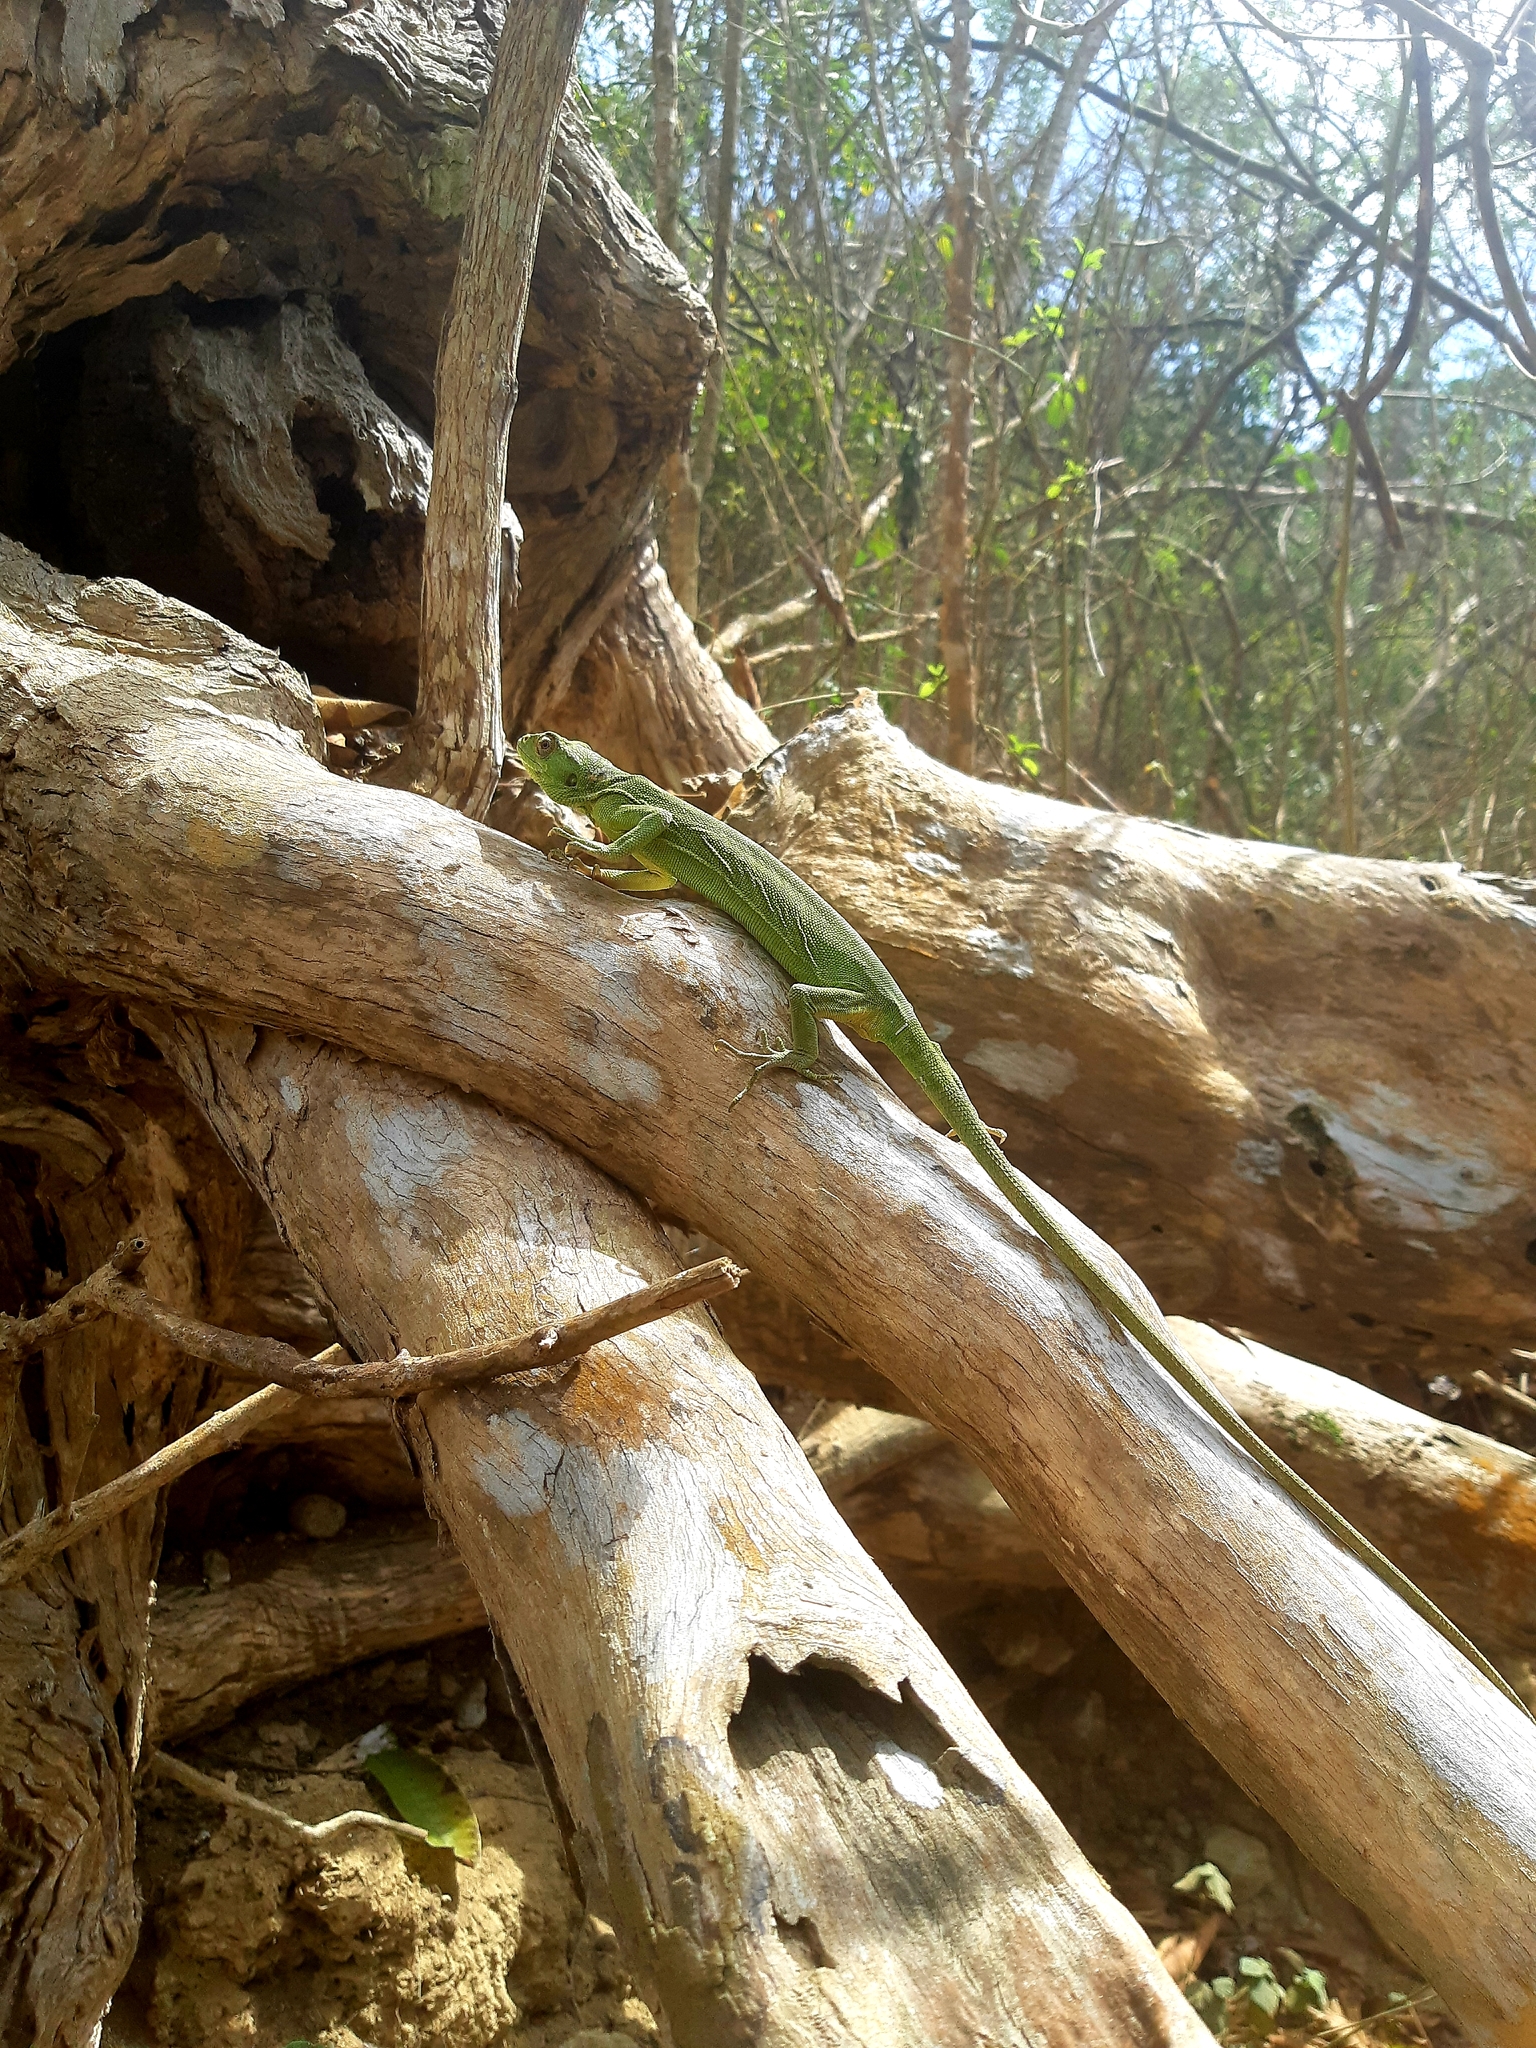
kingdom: Animalia
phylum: Chordata
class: Squamata
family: Polychrotidae
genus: Polychrus
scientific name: Polychrus femoralis
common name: Werner's bush anole
